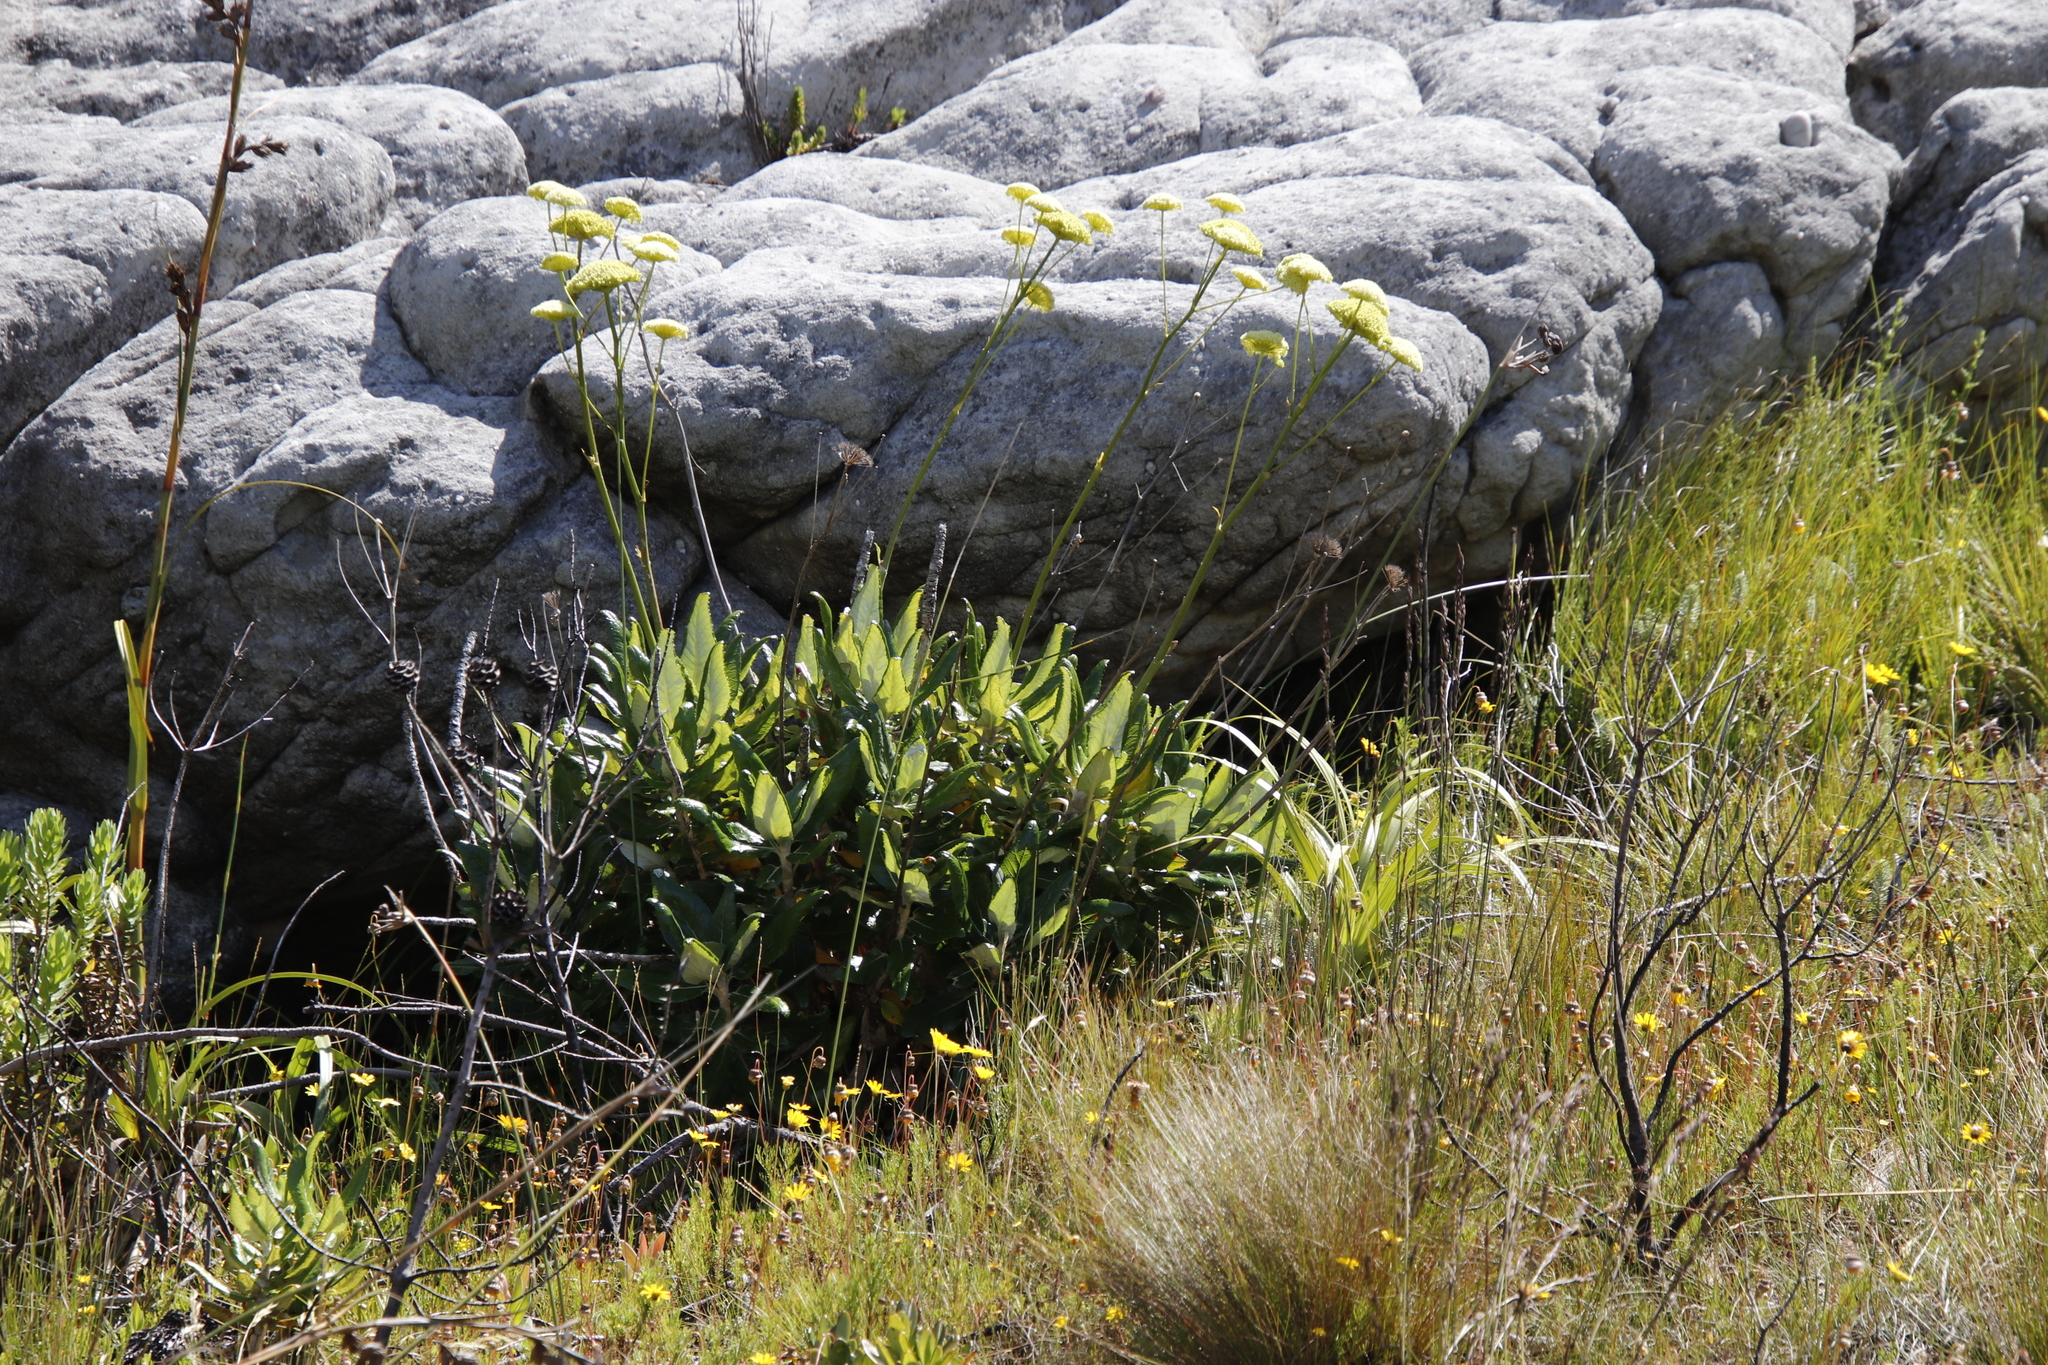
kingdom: Plantae
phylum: Tracheophyta
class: Magnoliopsida
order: Apiales
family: Apiaceae
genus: Hermas
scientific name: Hermas villosa
